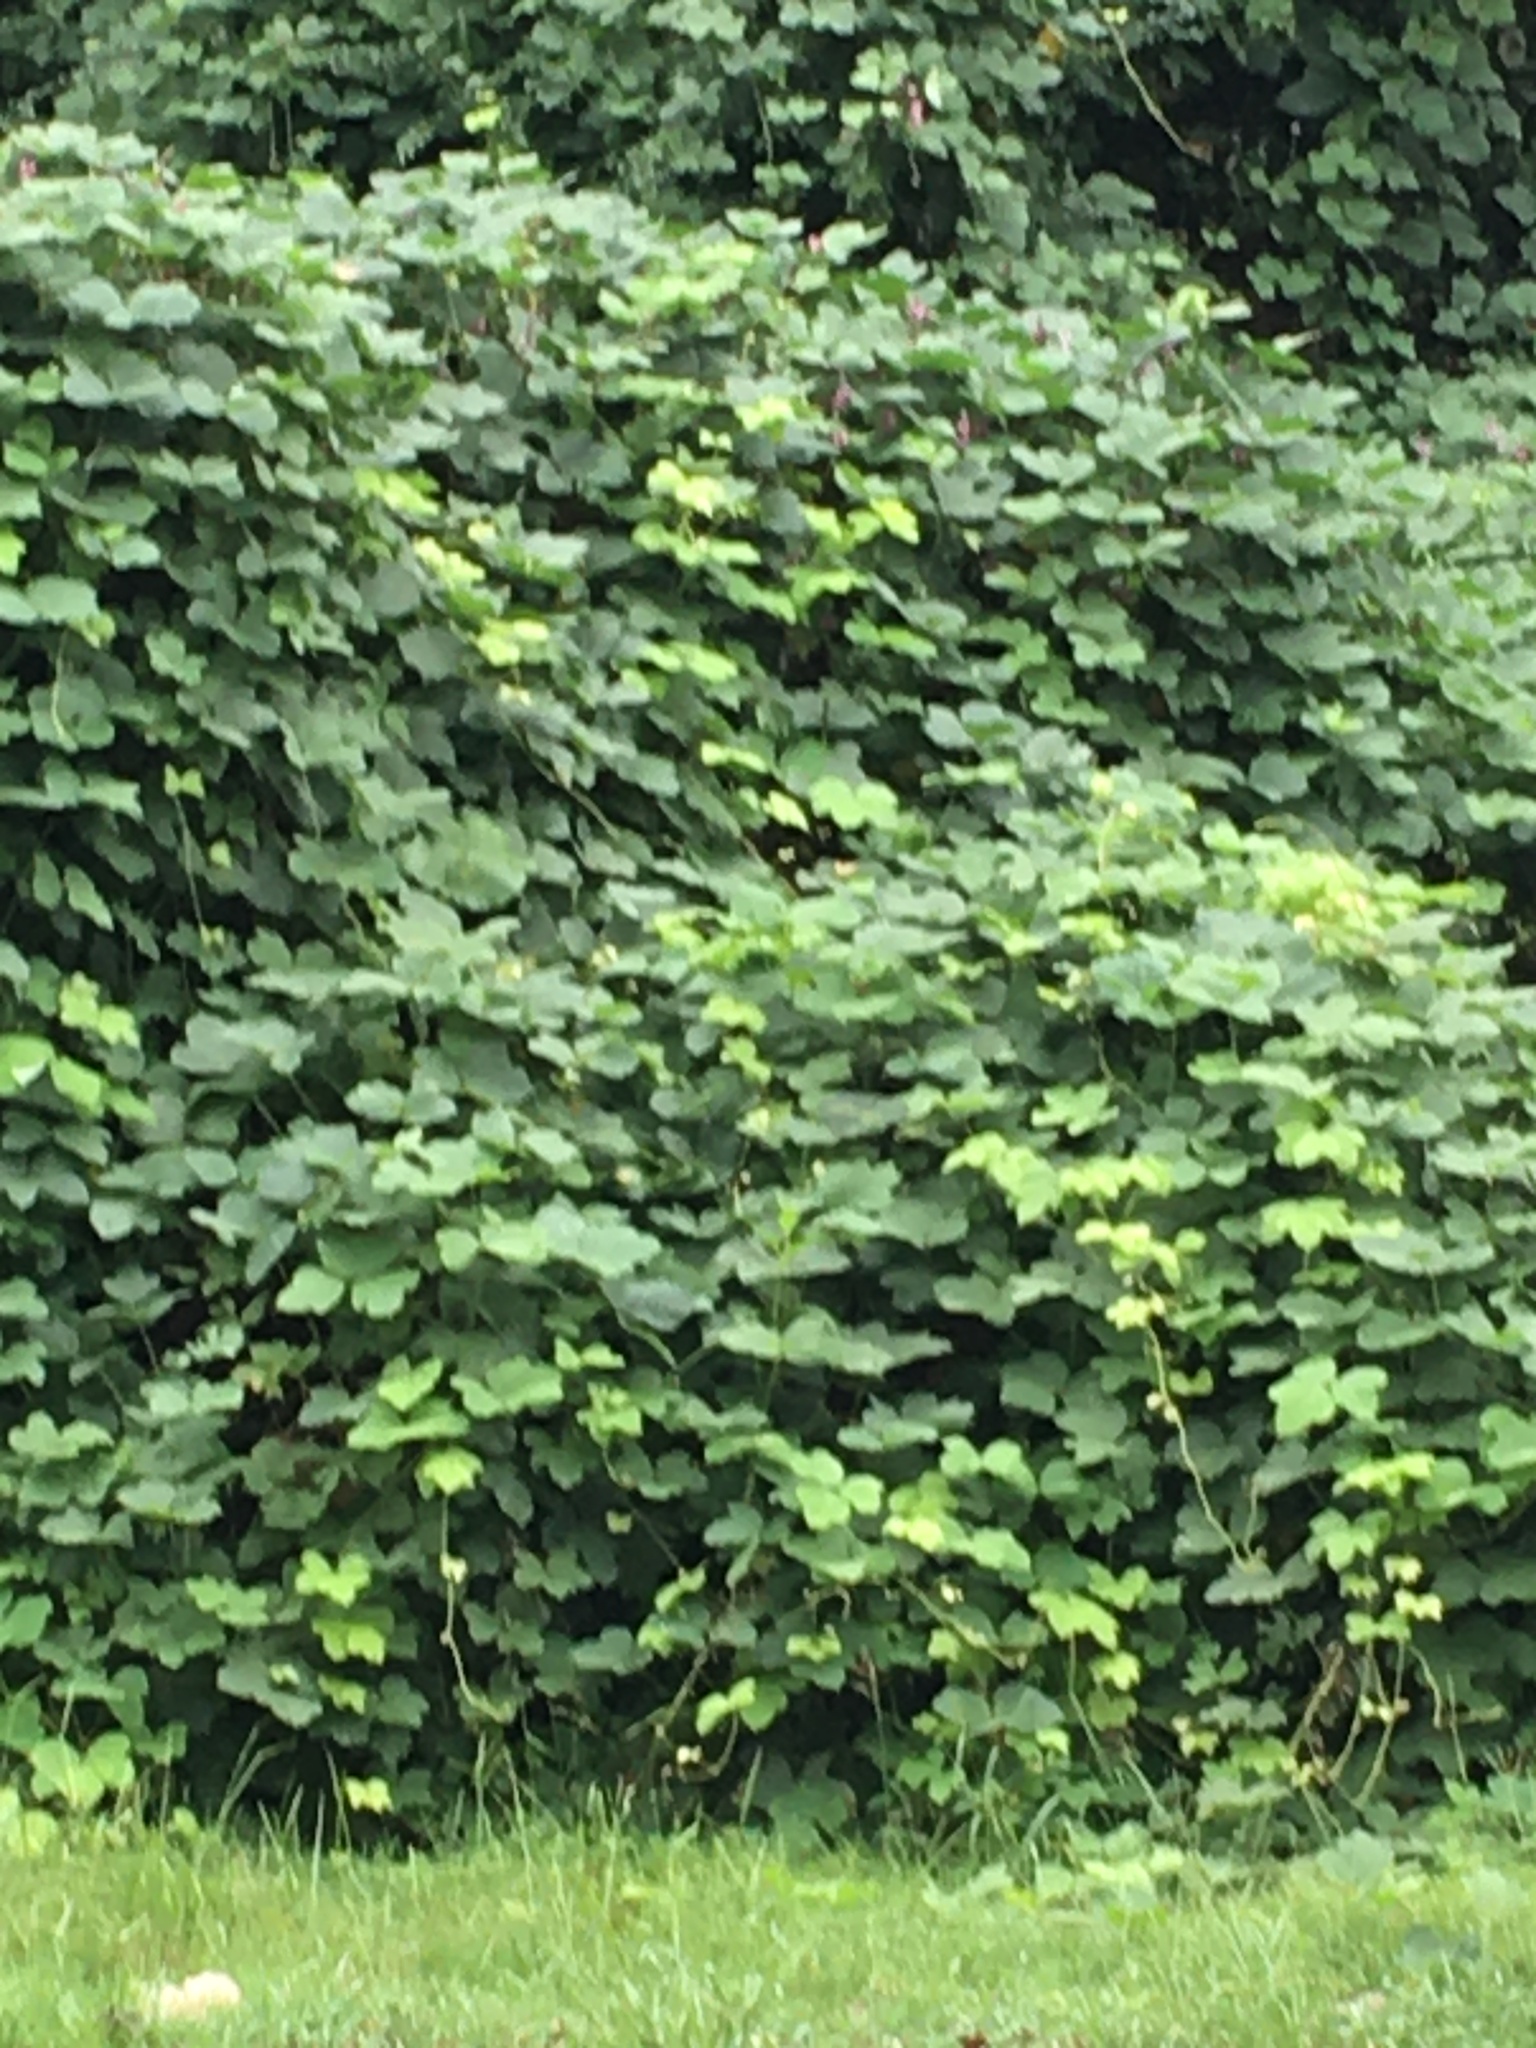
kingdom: Plantae
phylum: Tracheophyta
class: Magnoliopsida
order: Fabales
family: Fabaceae
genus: Pueraria
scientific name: Pueraria montana
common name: Kudzu
